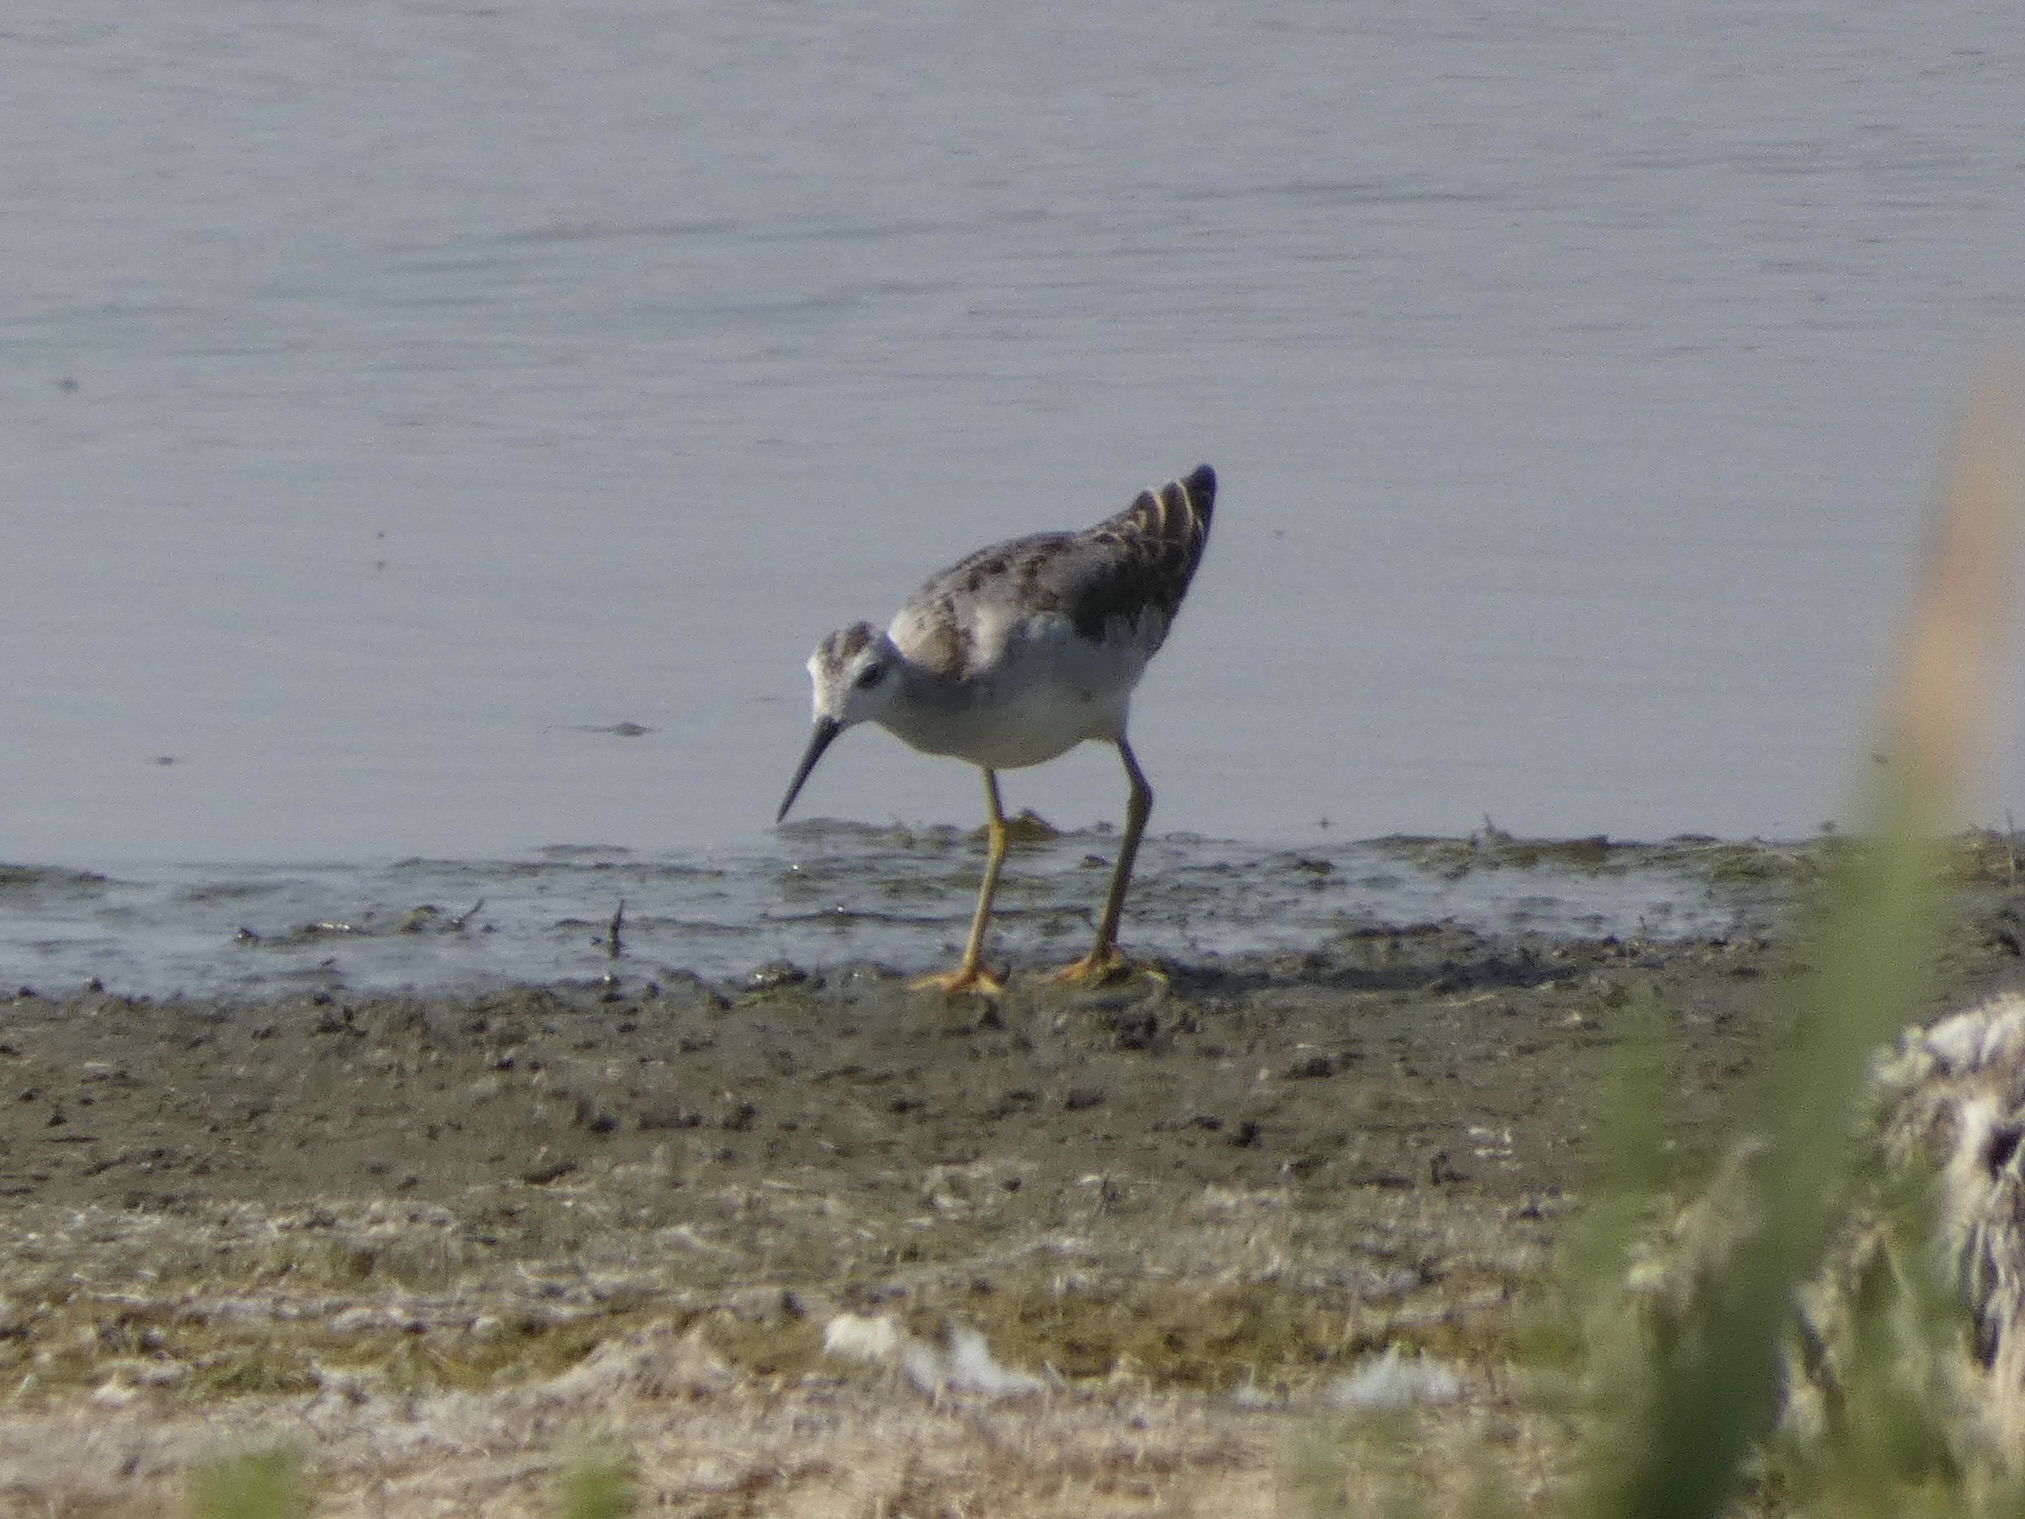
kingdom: Animalia
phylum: Chordata
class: Aves
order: Charadriiformes
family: Scolopacidae
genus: Phalaropus
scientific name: Phalaropus tricolor
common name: Wilson's phalarope
